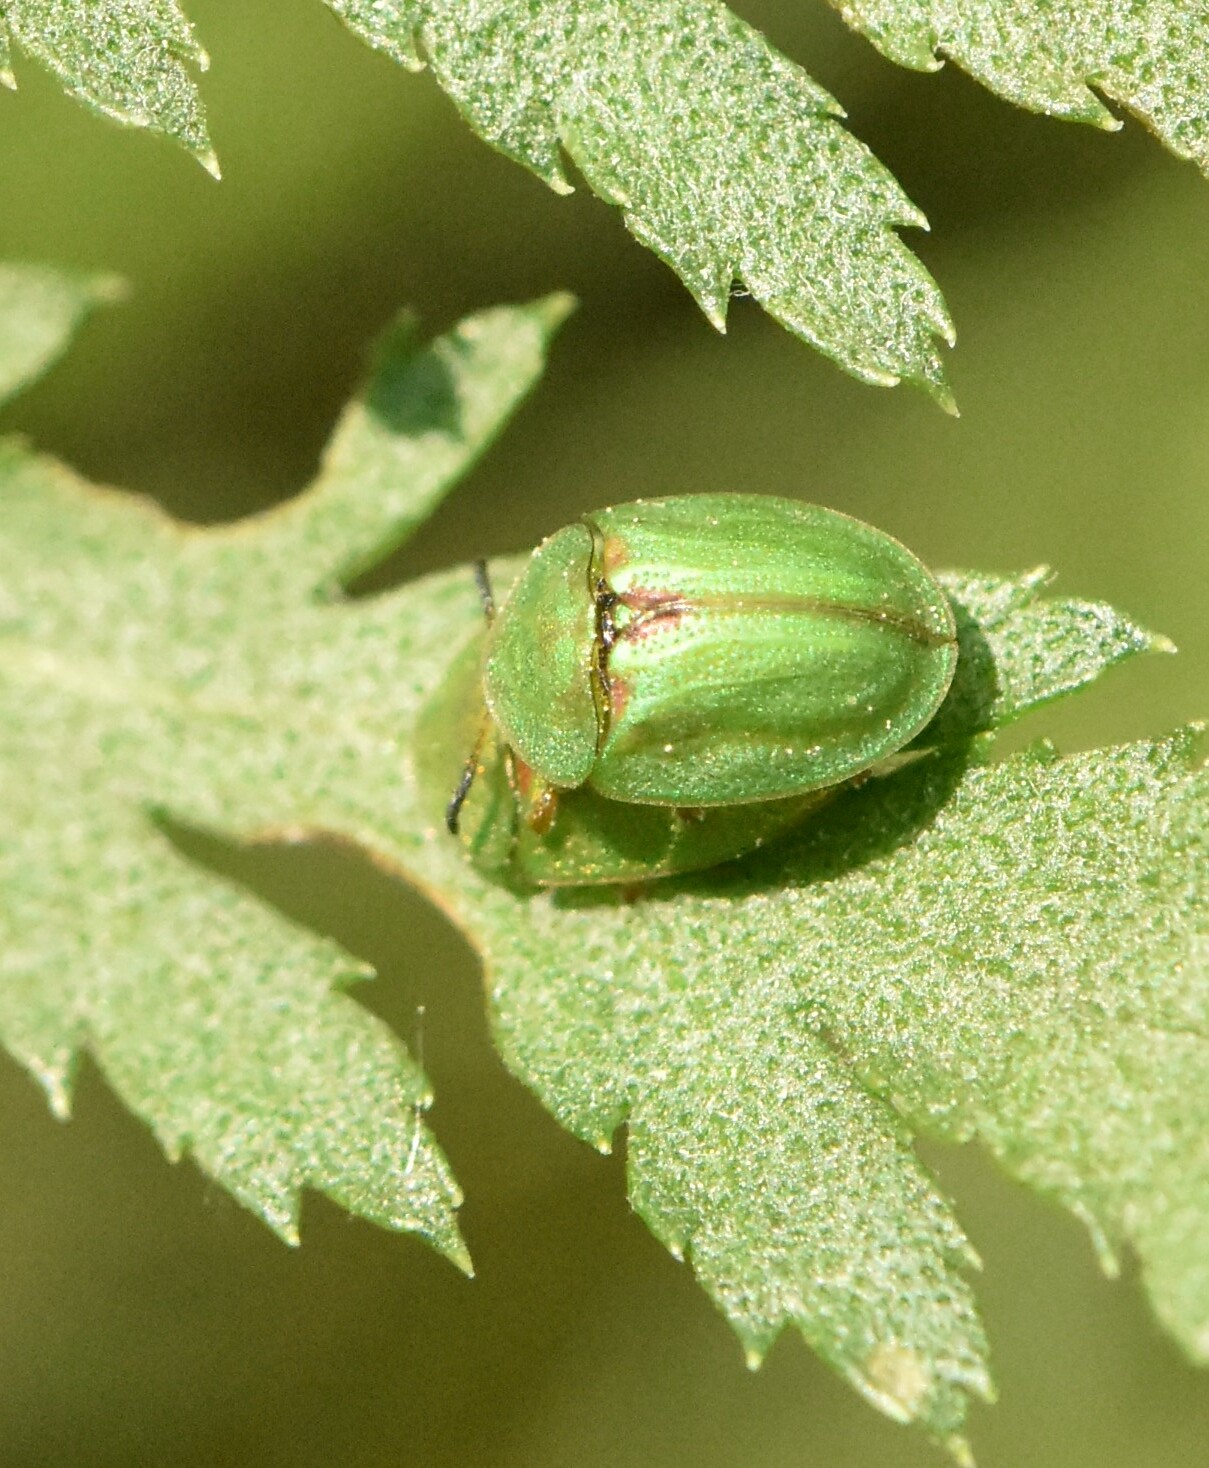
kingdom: Animalia
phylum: Arthropoda
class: Insecta
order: Coleoptera
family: Chrysomelidae
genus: Cassida
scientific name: Cassida stigmatica
